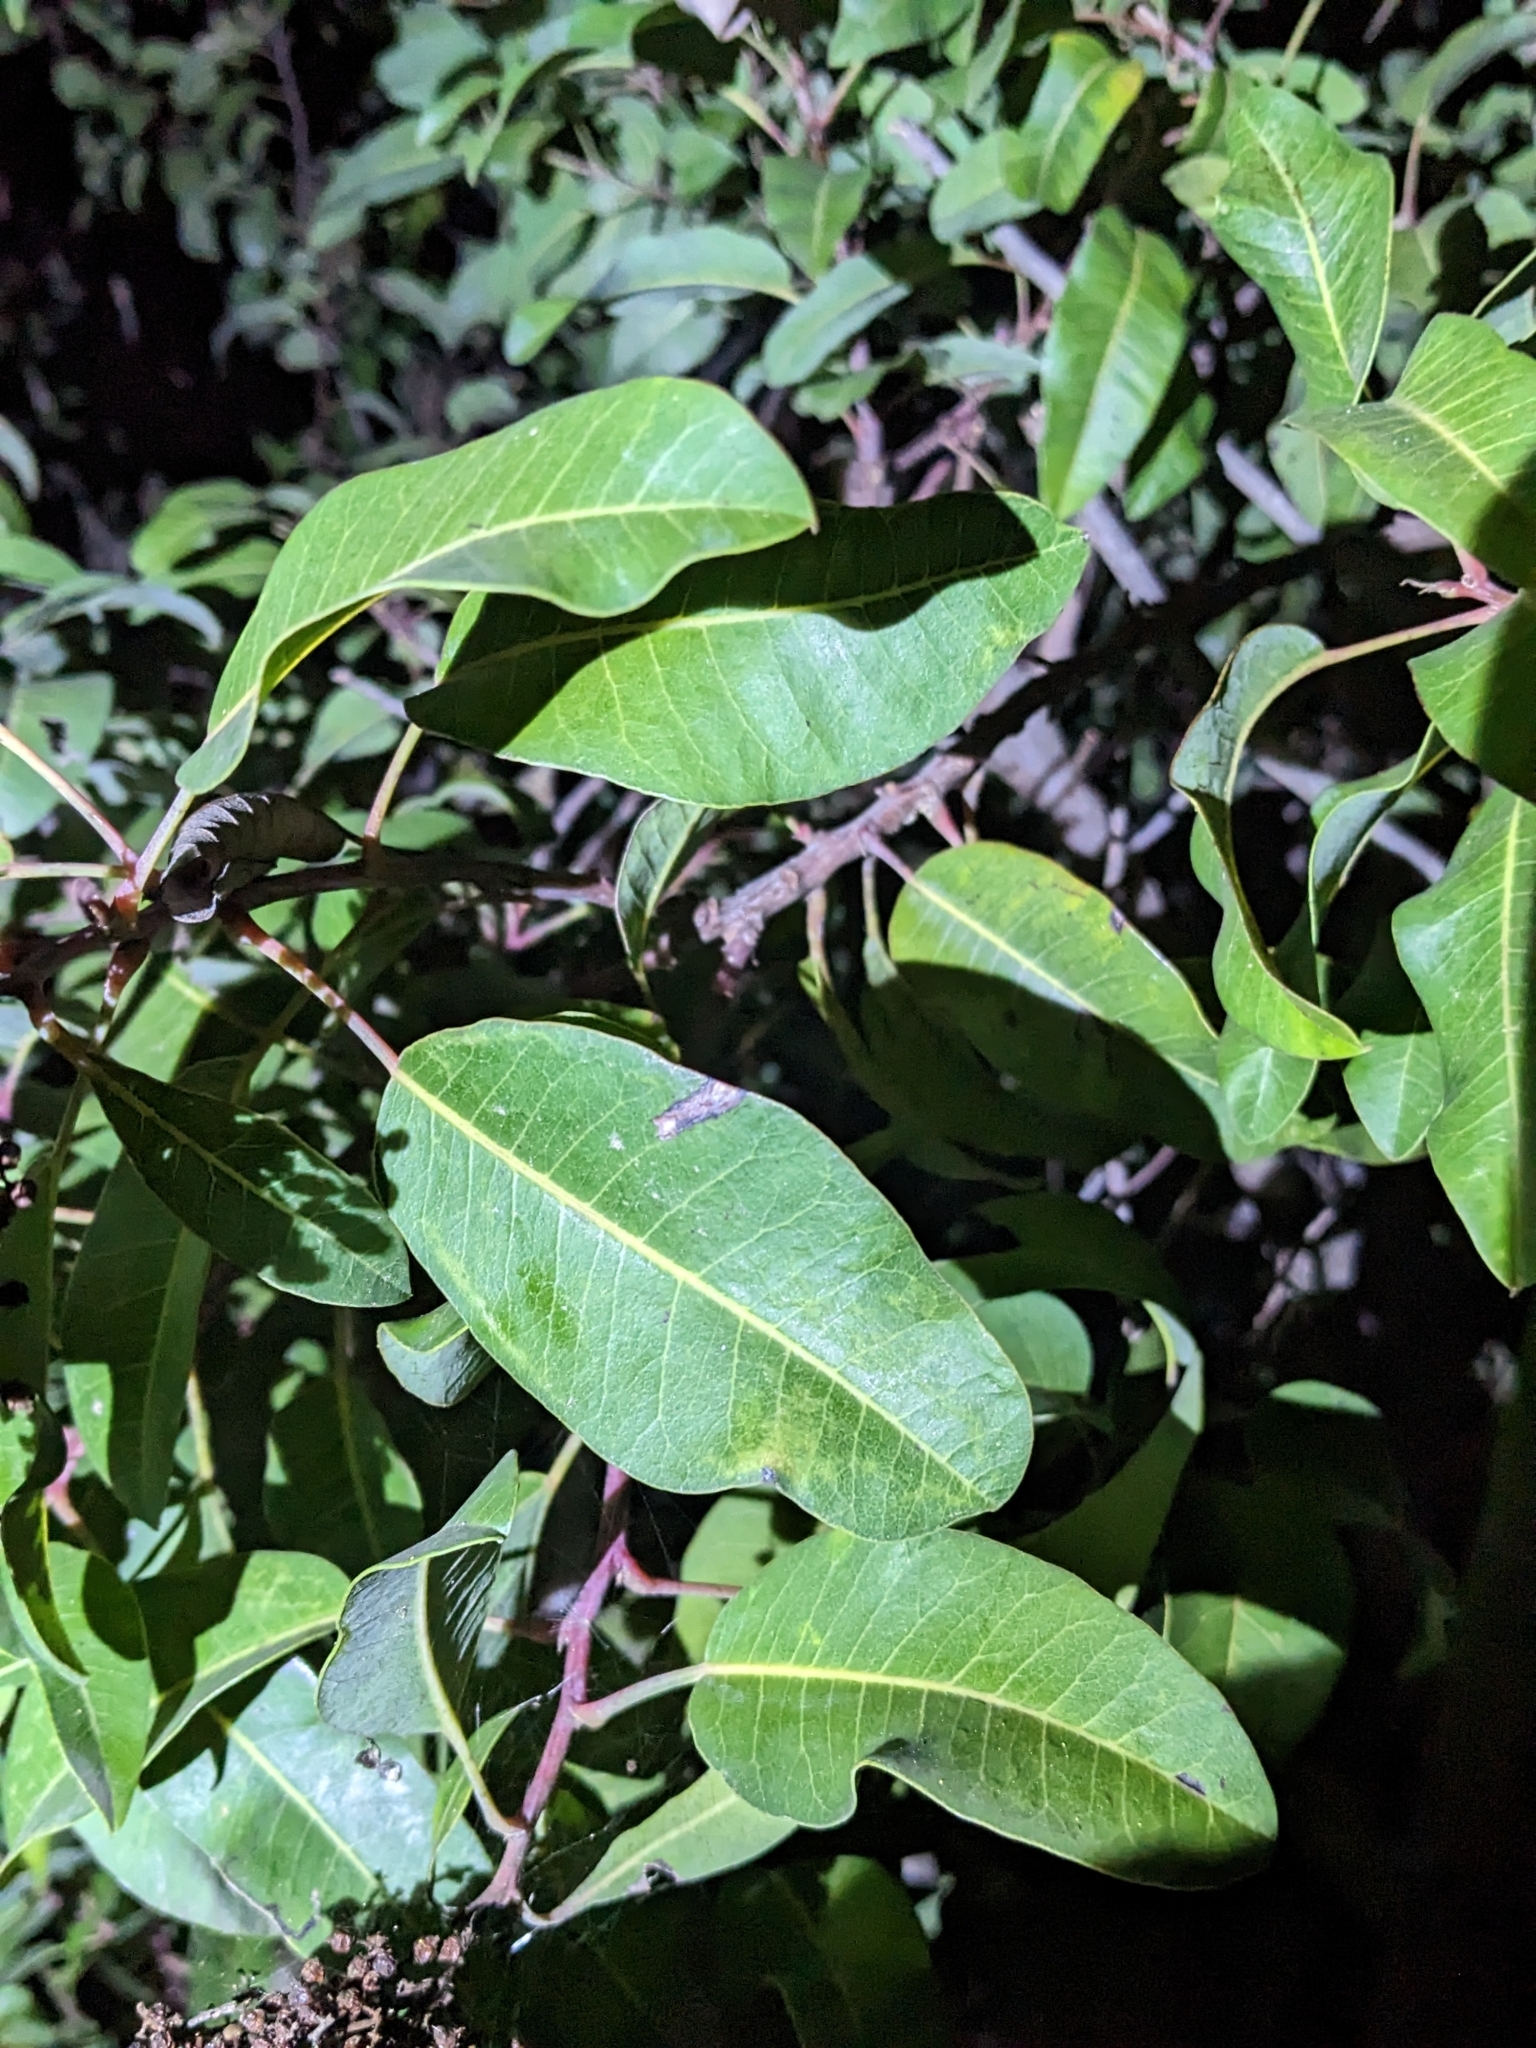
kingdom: Plantae
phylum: Tracheophyta
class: Magnoliopsida
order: Sapindales
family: Anacardiaceae
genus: Malosma
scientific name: Malosma laurina
